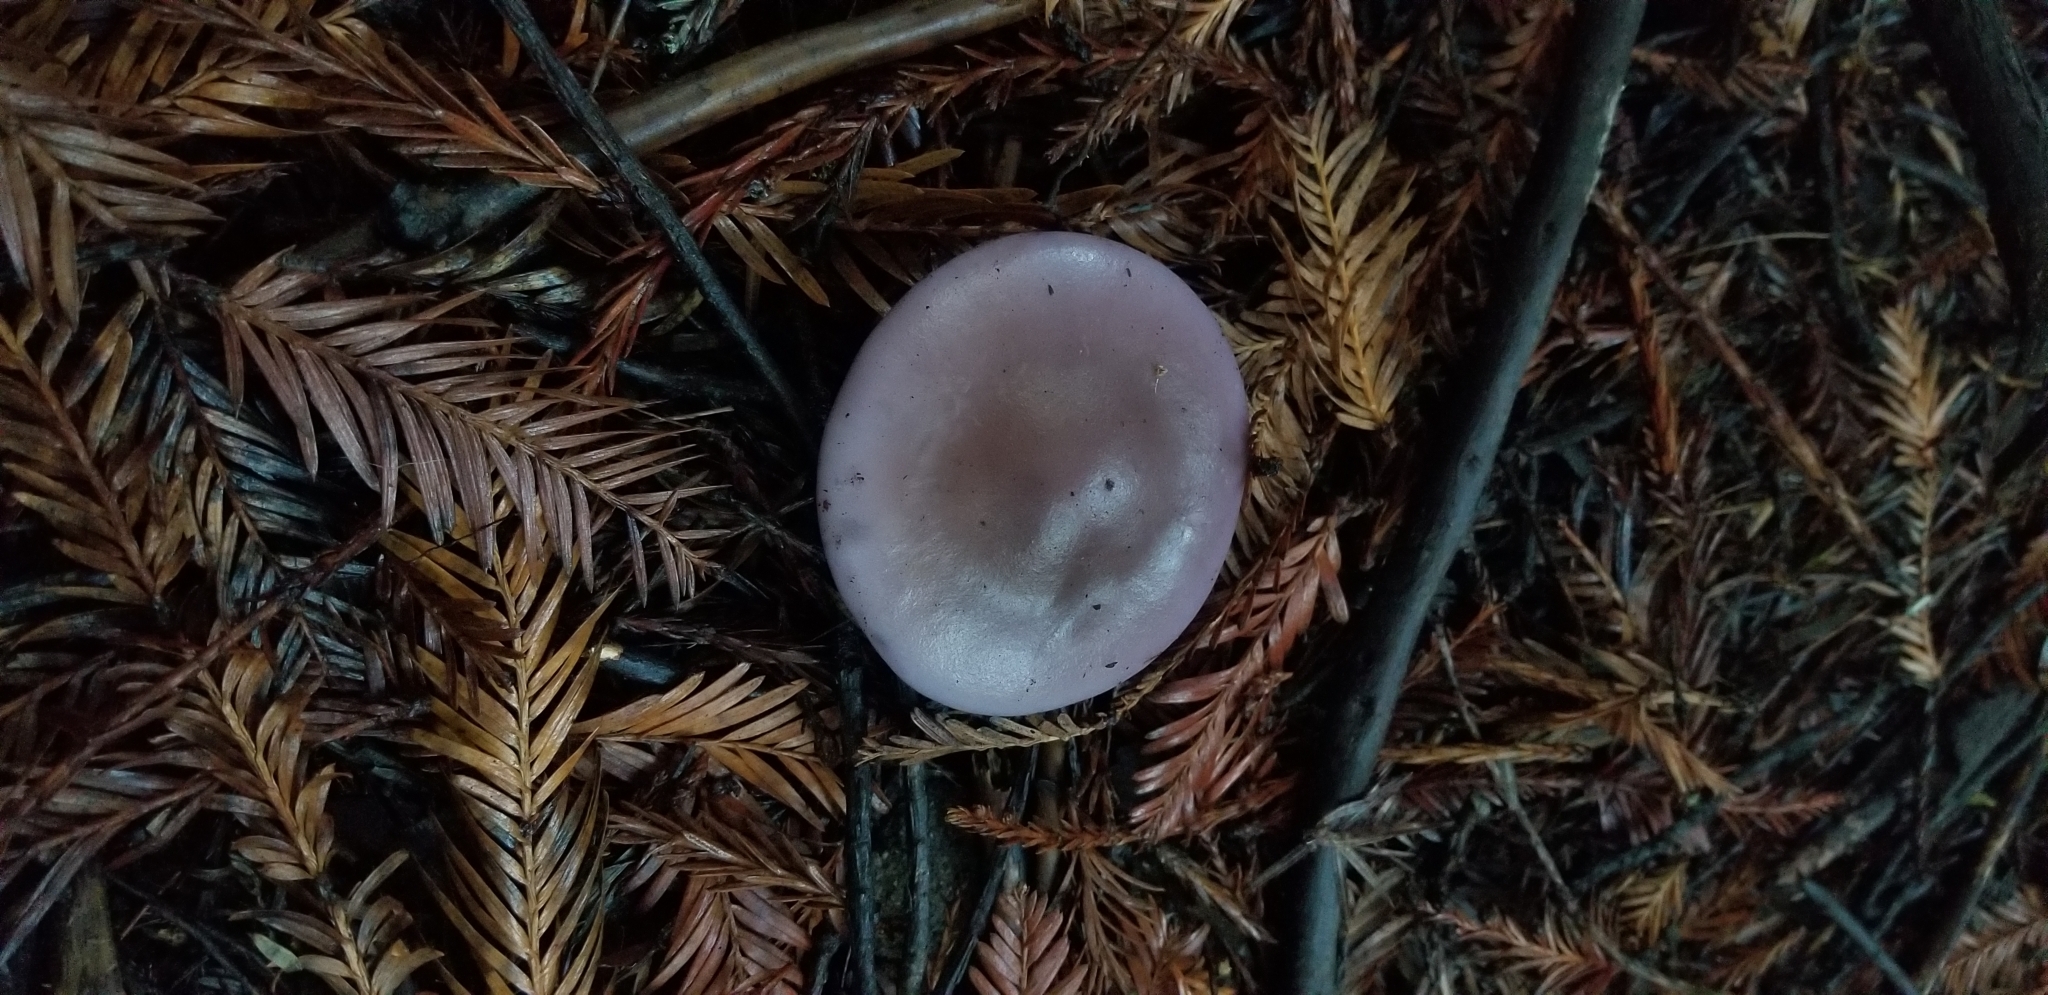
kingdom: Fungi
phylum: Basidiomycota
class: Agaricomycetes
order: Agaricales
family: Tricholomataceae
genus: Collybia
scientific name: Collybia
